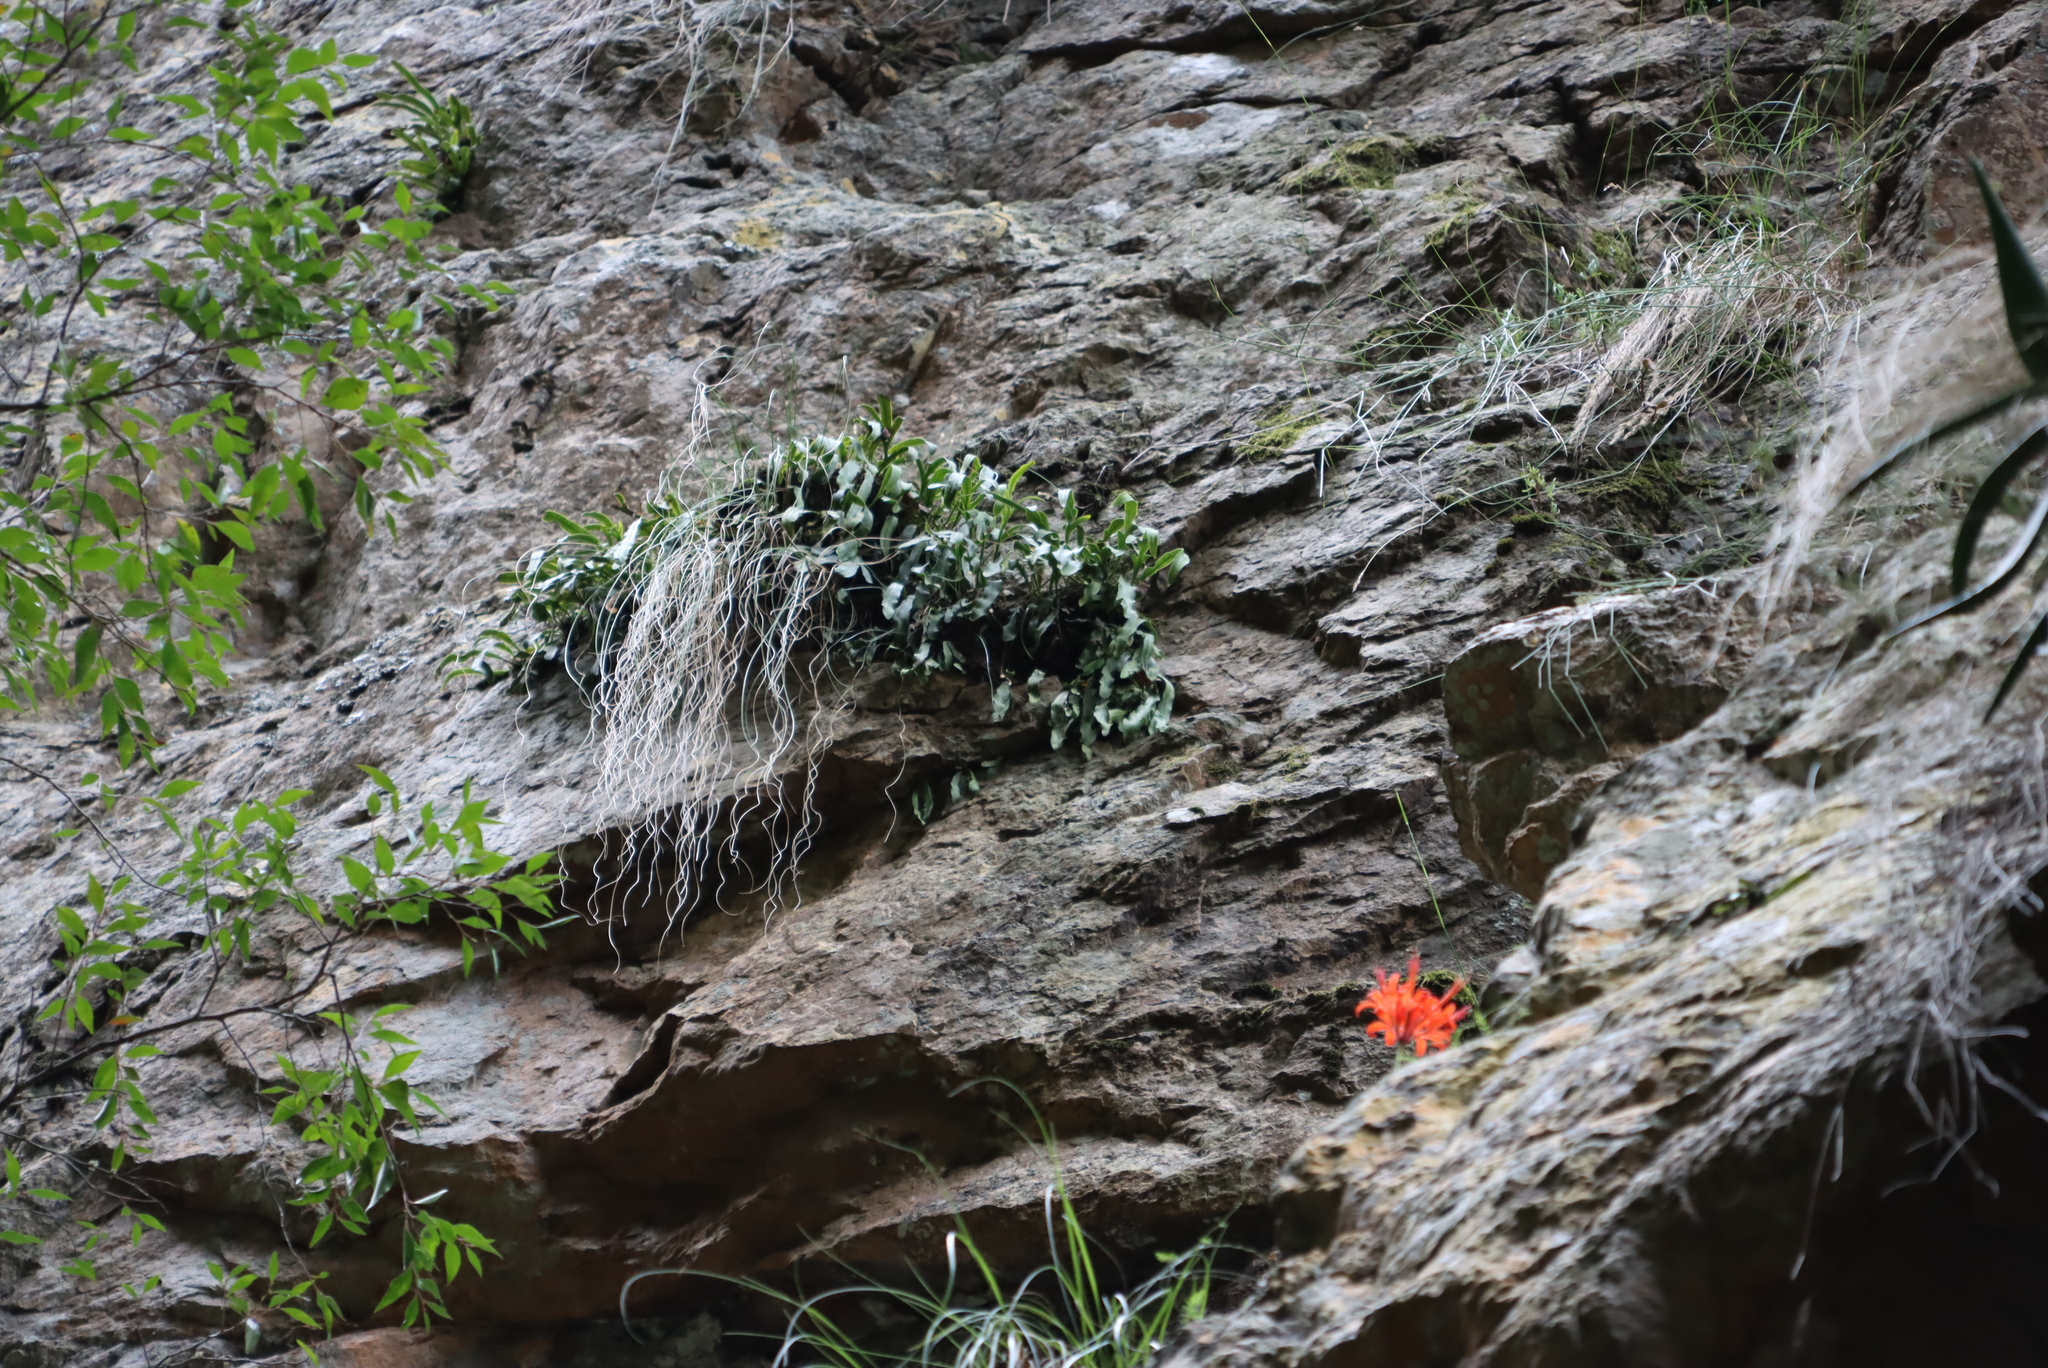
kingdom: Plantae
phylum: Tracheophyta
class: Liliopsida
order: Asparagales
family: Amaryllidaceae
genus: Nerine
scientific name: Nerine sarniensis
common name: Guernsey-lily
